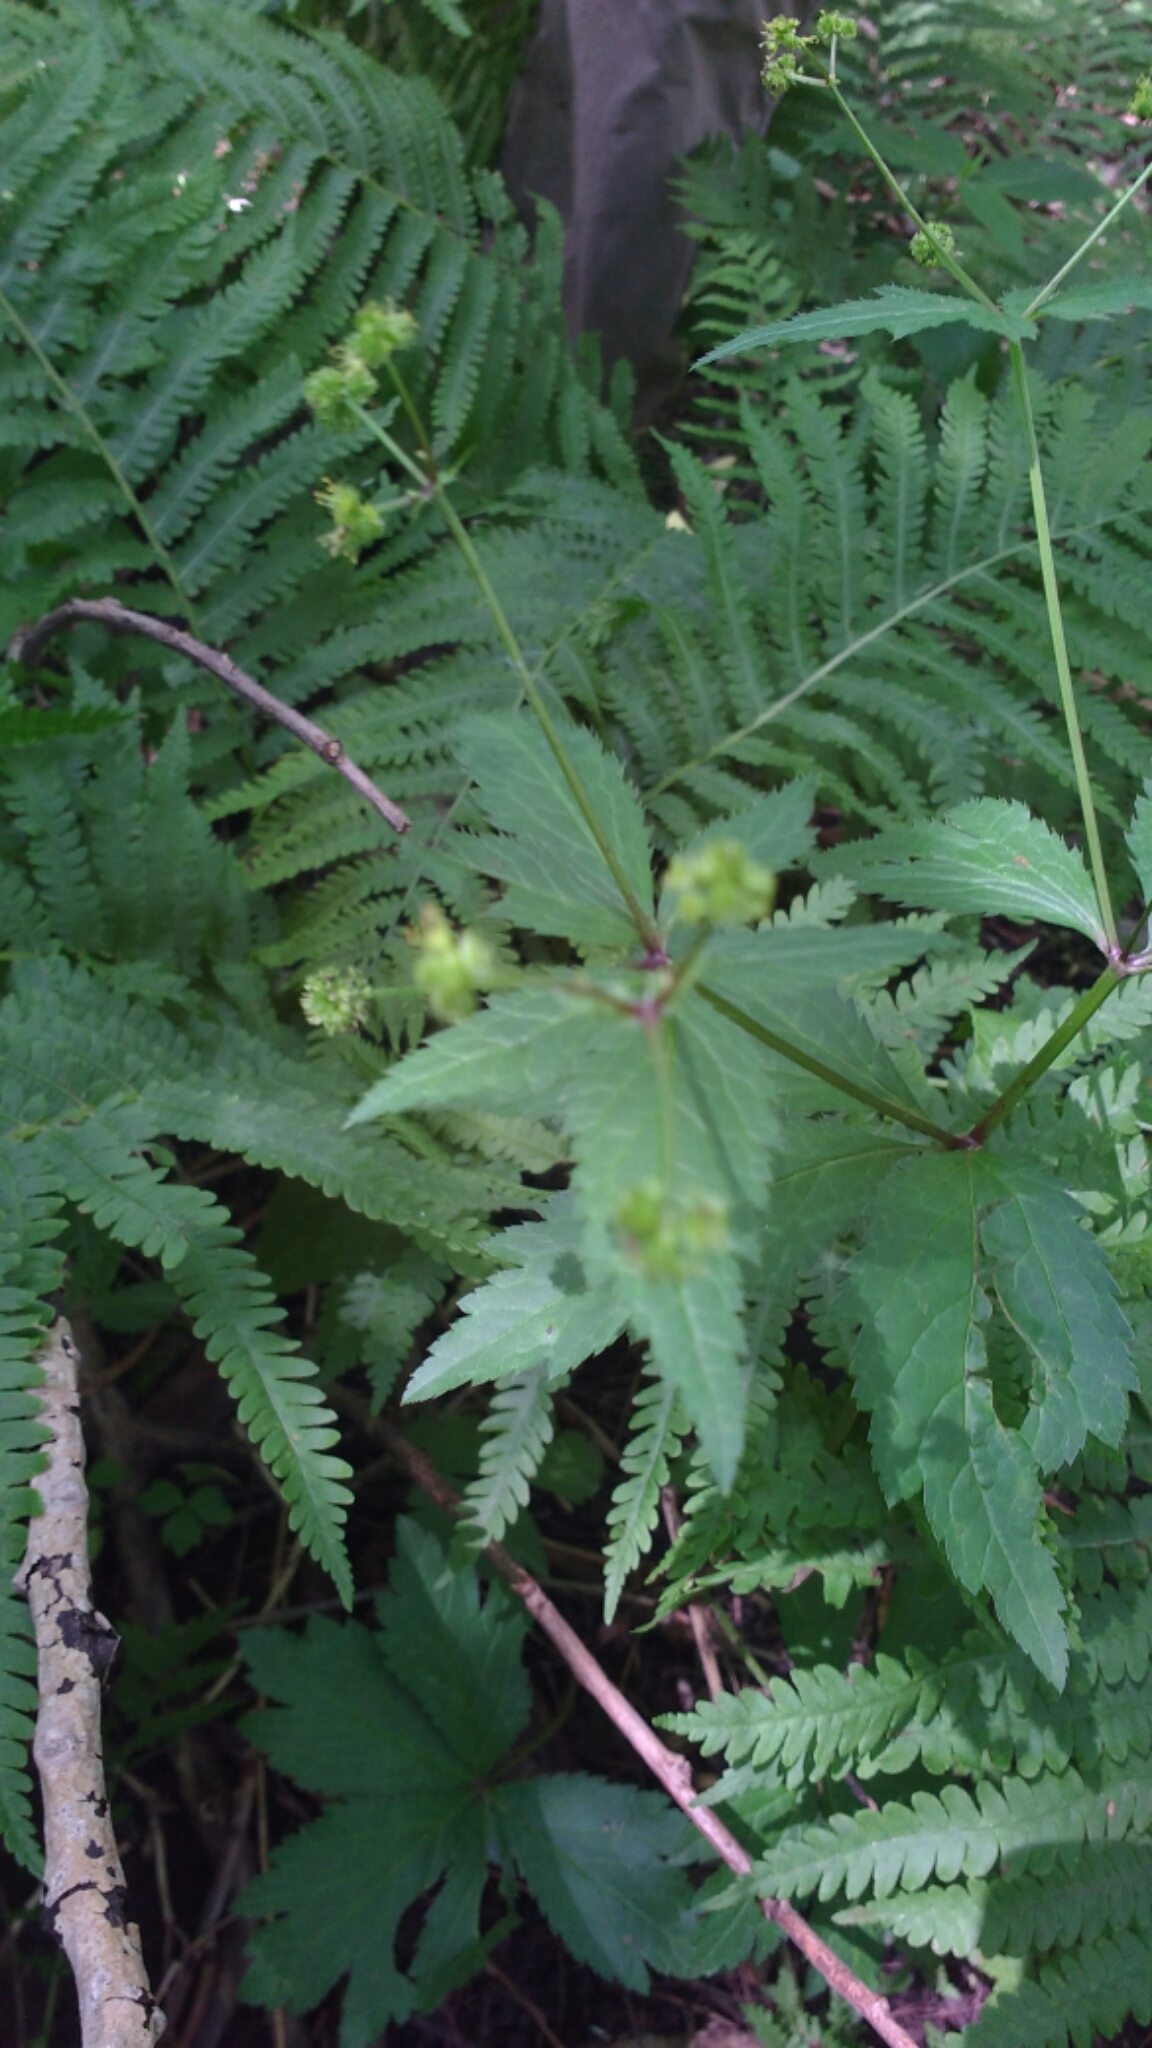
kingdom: Plantae
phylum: Tracheophyta
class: Magnoliopsida
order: Apiales
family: Apiaceae
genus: Sanicula
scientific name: Sanicula odorata
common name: Cluster sanicle
